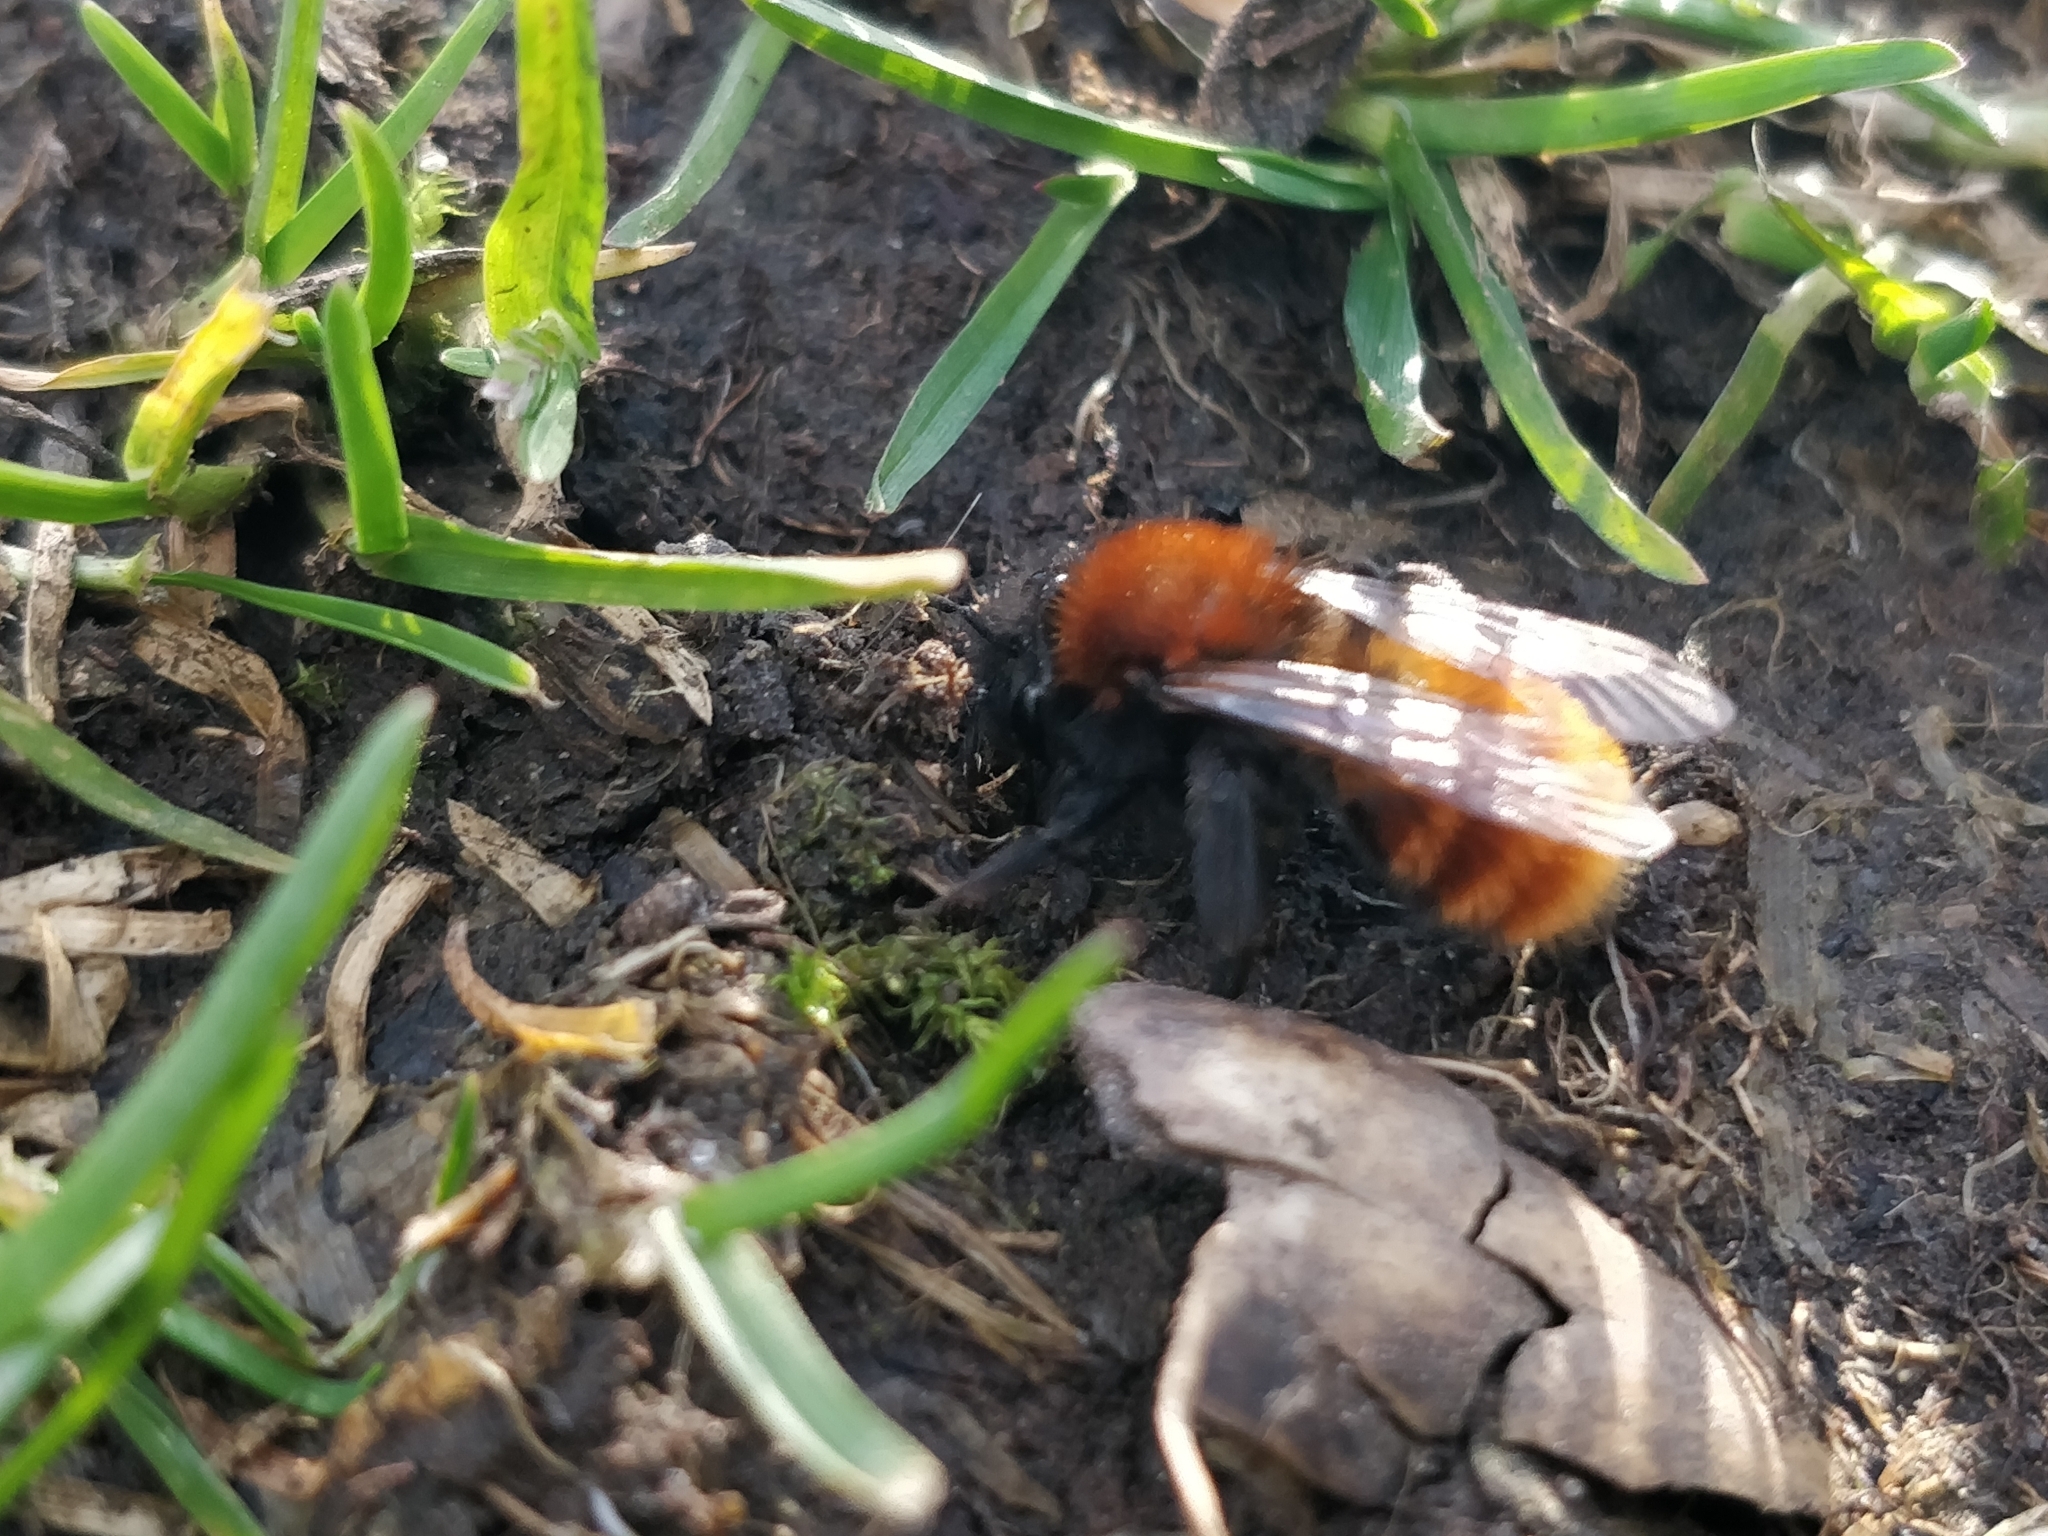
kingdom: Animalia
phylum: Arthropoda
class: Insecta
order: Hymenoptera
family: Andrenidae
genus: Andrena
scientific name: Andrena fulva
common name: Tawny mining bee
